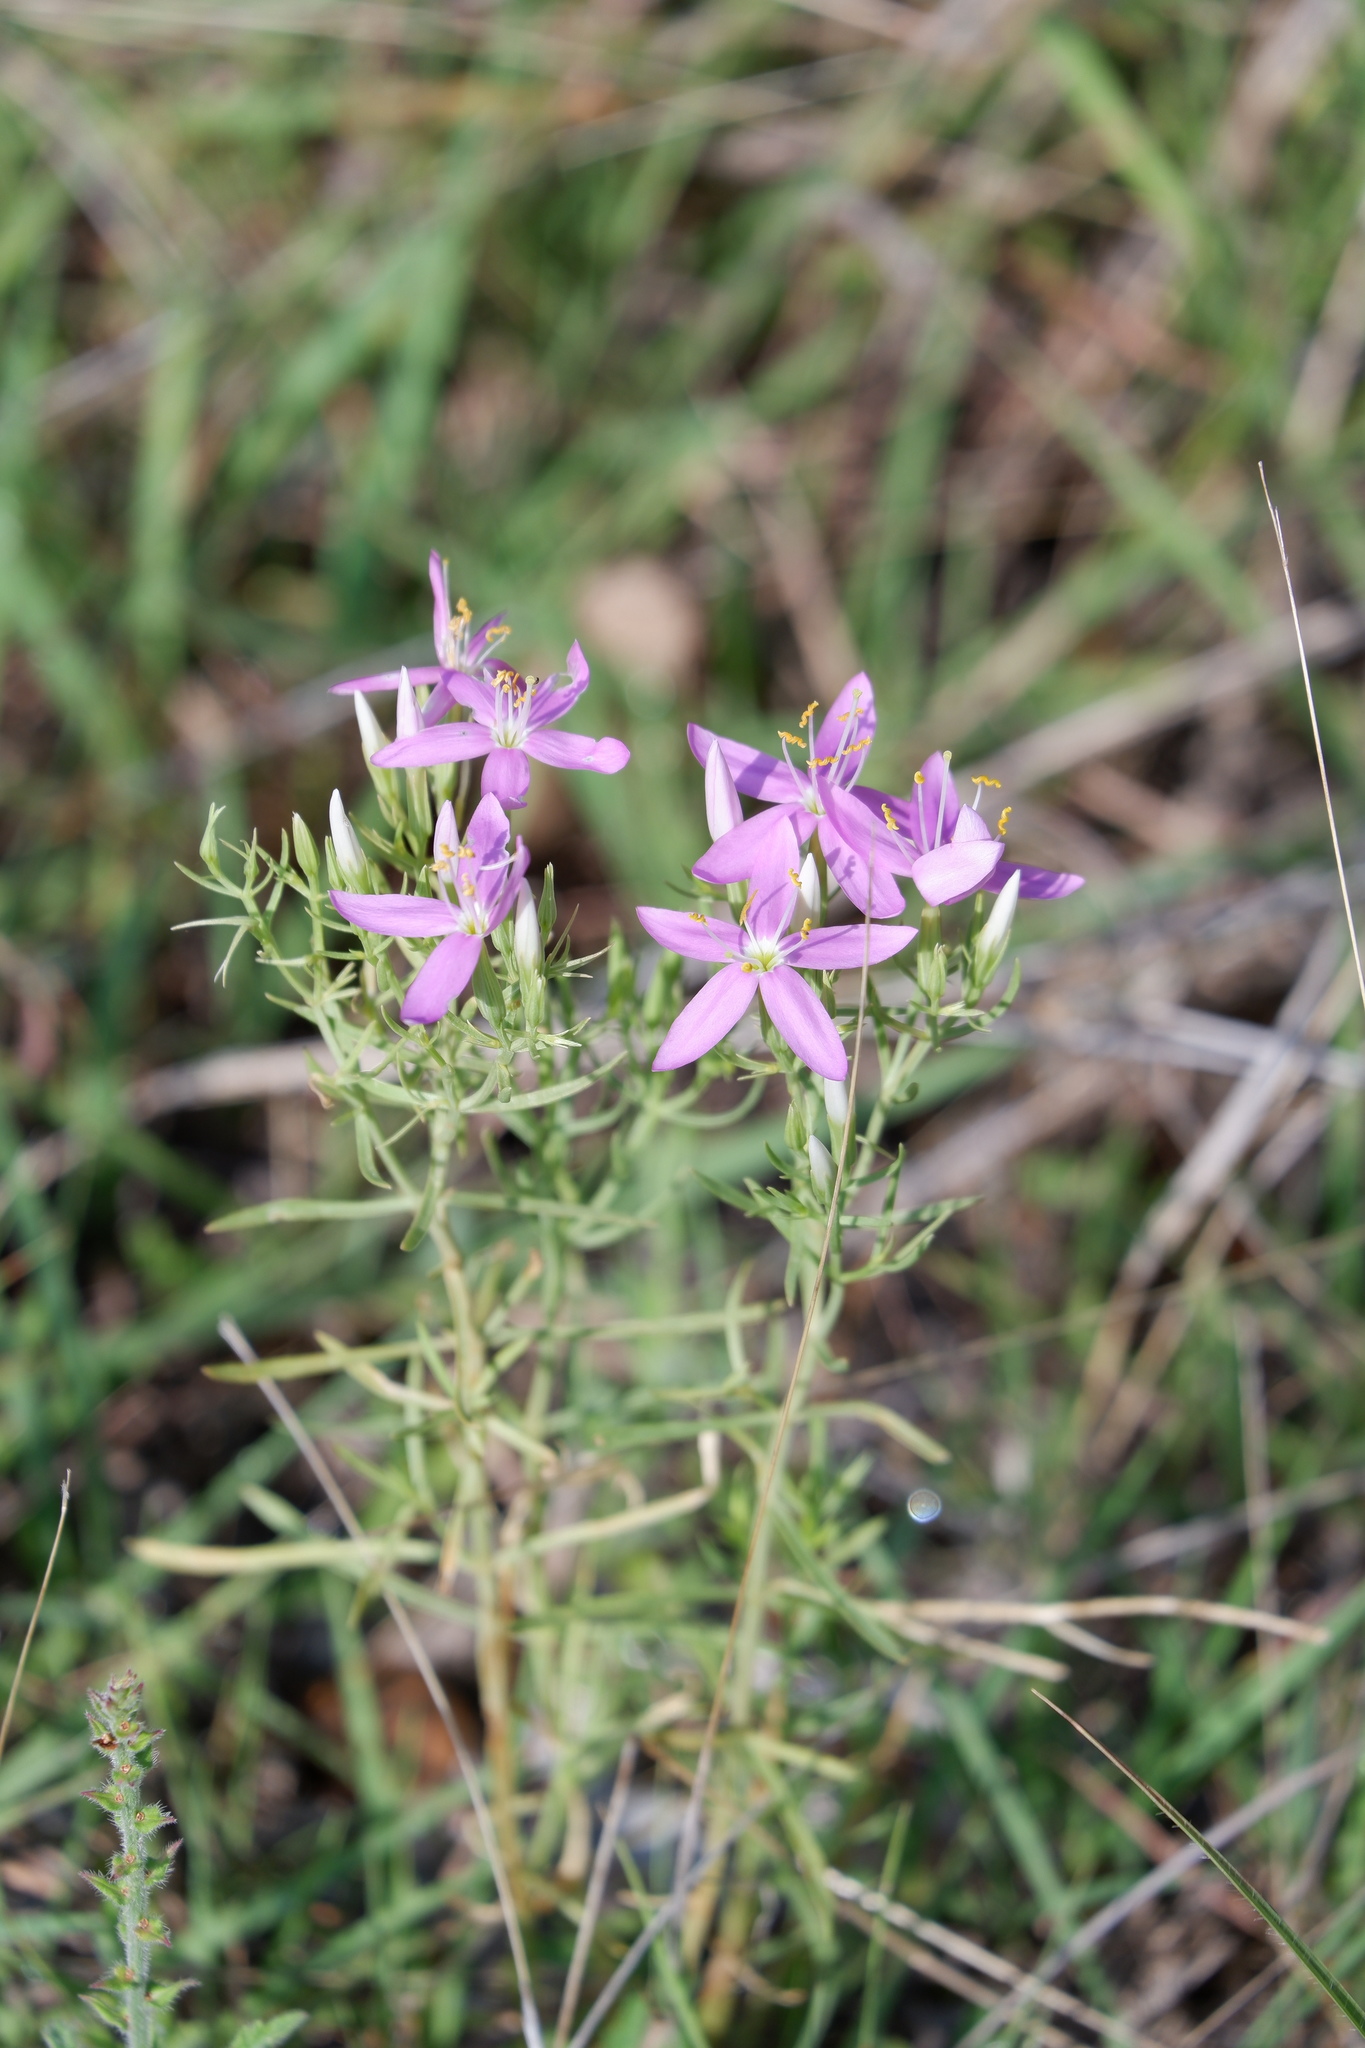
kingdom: Plantae
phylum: Tracheophyta
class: Magnoliopsida
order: Gentianales
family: Gentianaceae
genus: Zeltnera
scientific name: Zeltnera beyrichii
